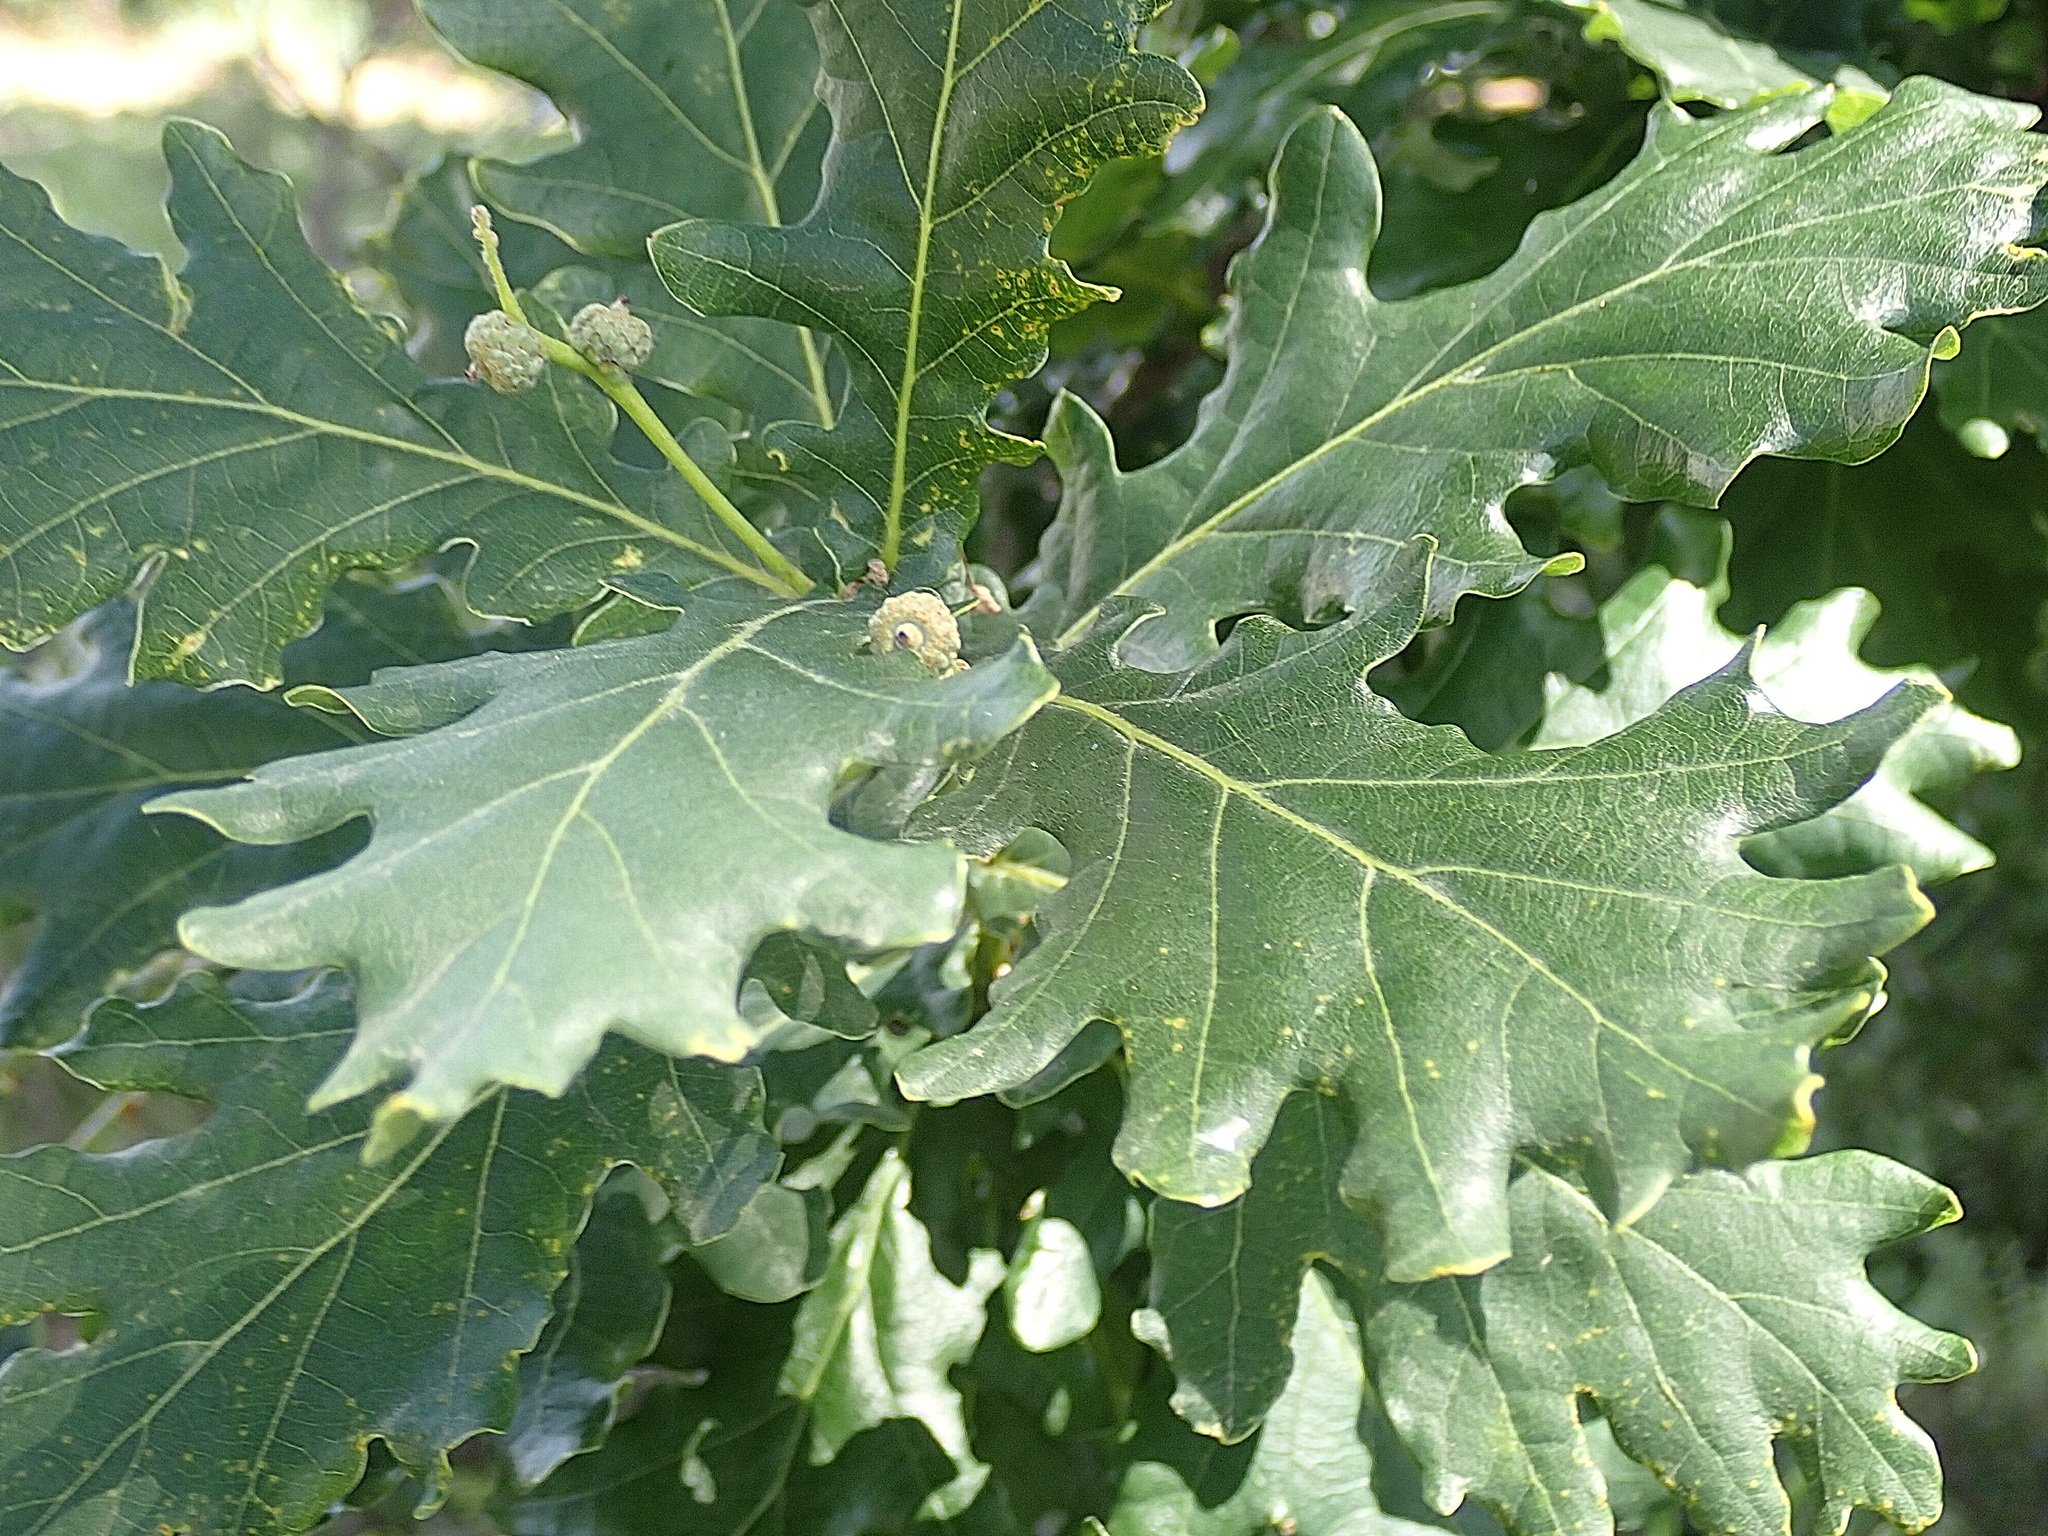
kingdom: Plantae
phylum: Tracheophyta
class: Magnoliopsida
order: Fagales
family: Fagaceae
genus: Quercus
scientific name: Quercus robur
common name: Pedunculate oak
